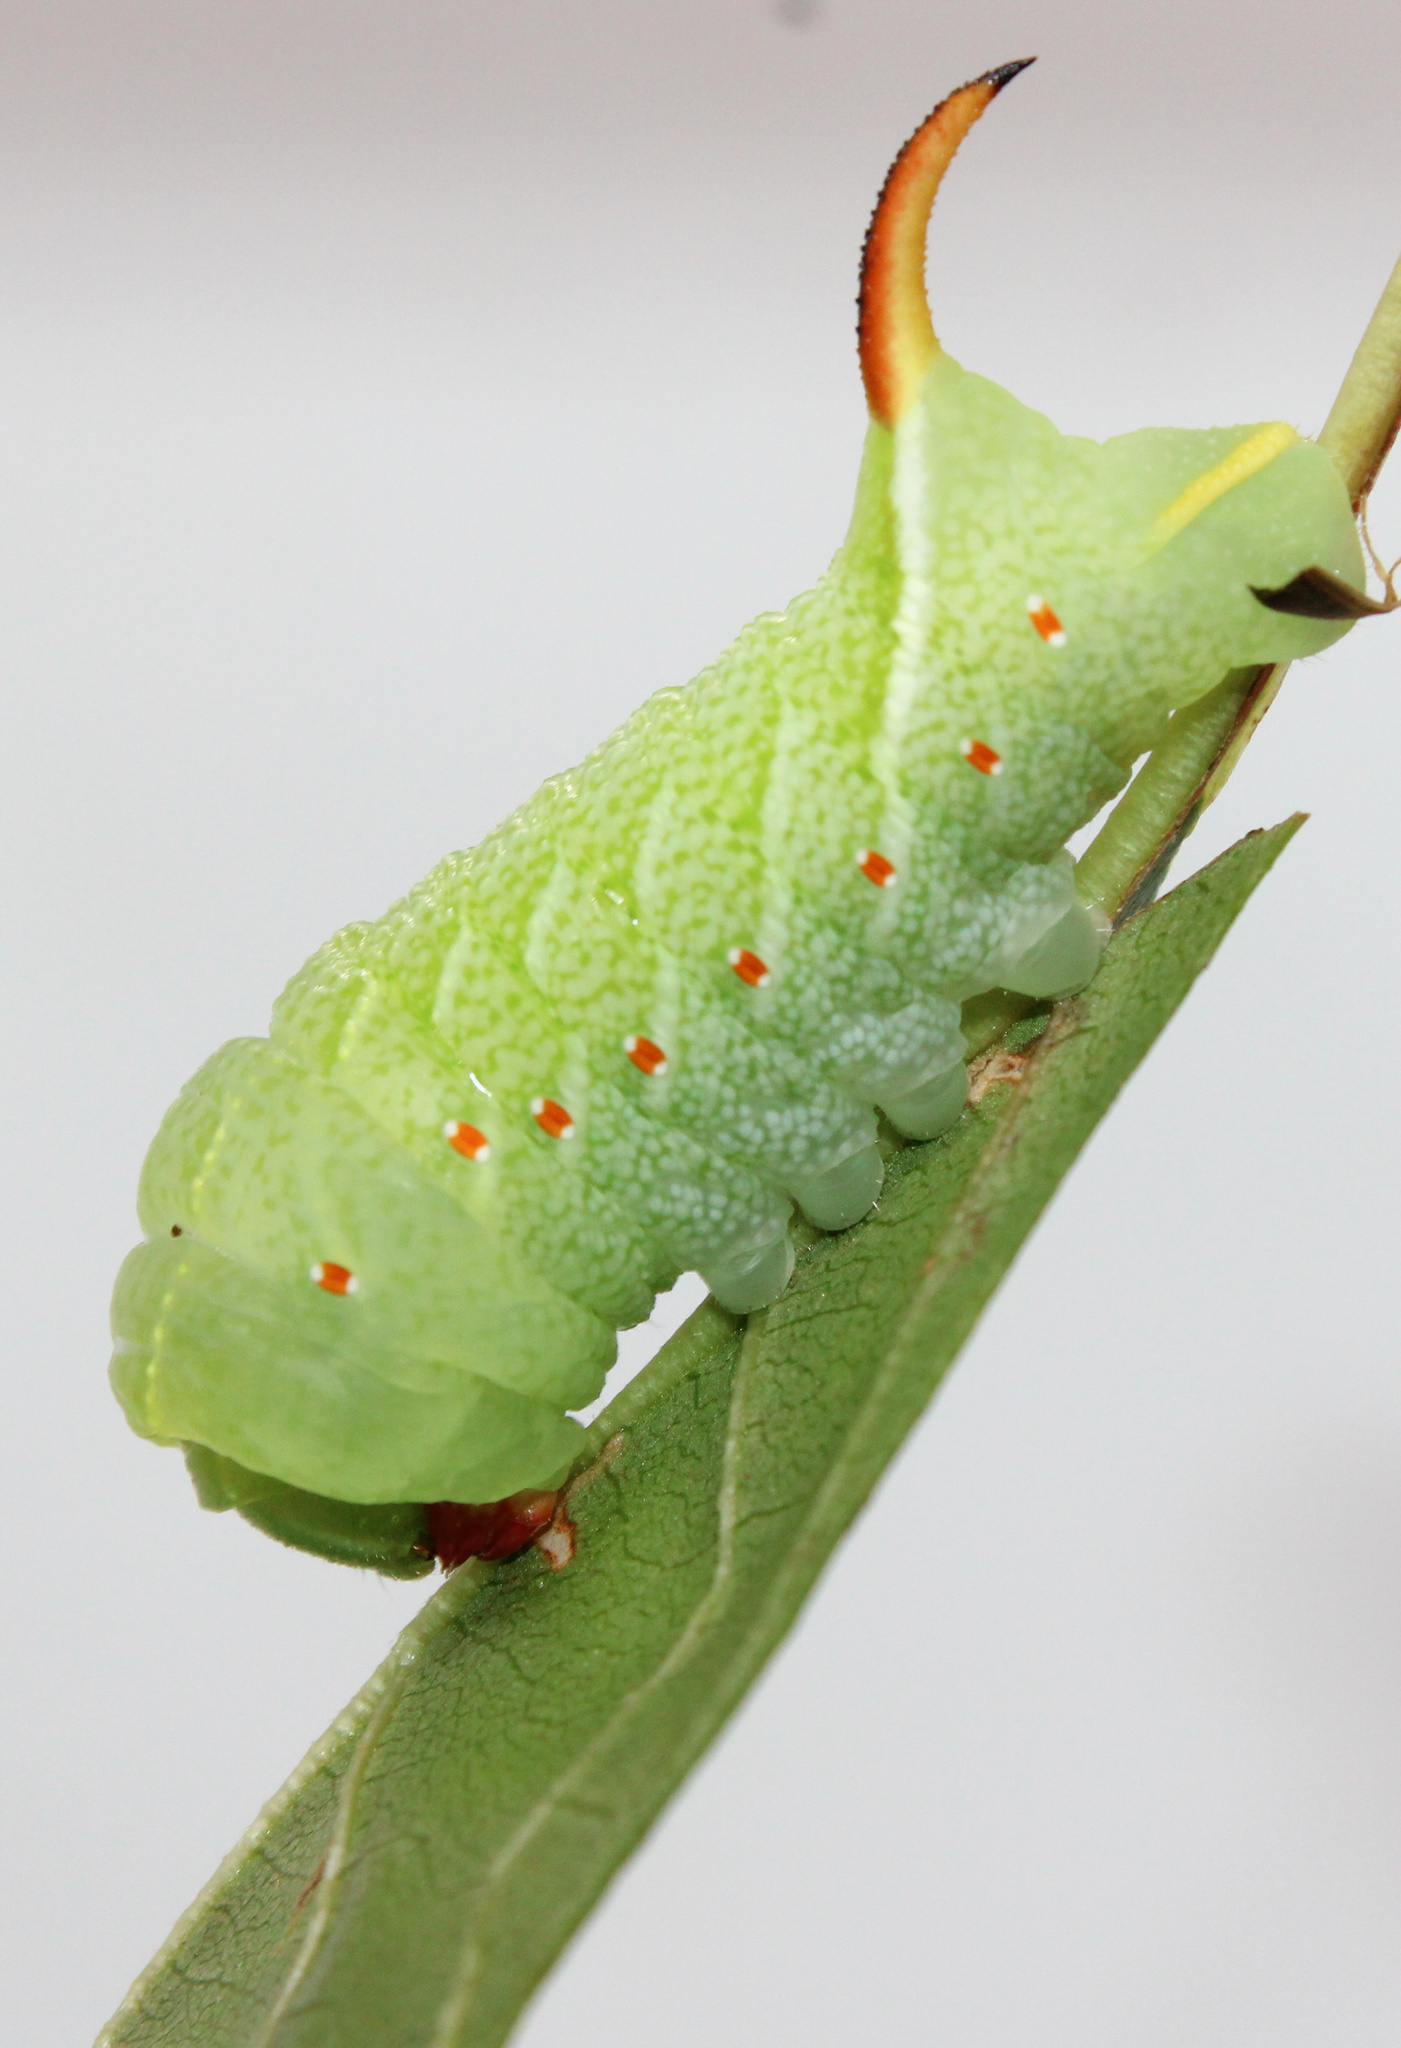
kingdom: Animalia
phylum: Arthropoda
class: Insecta
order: Lepidoptera
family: Sphingidae
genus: Darapsa
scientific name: Darapsa versicolor
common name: Hydrangea sphinx
